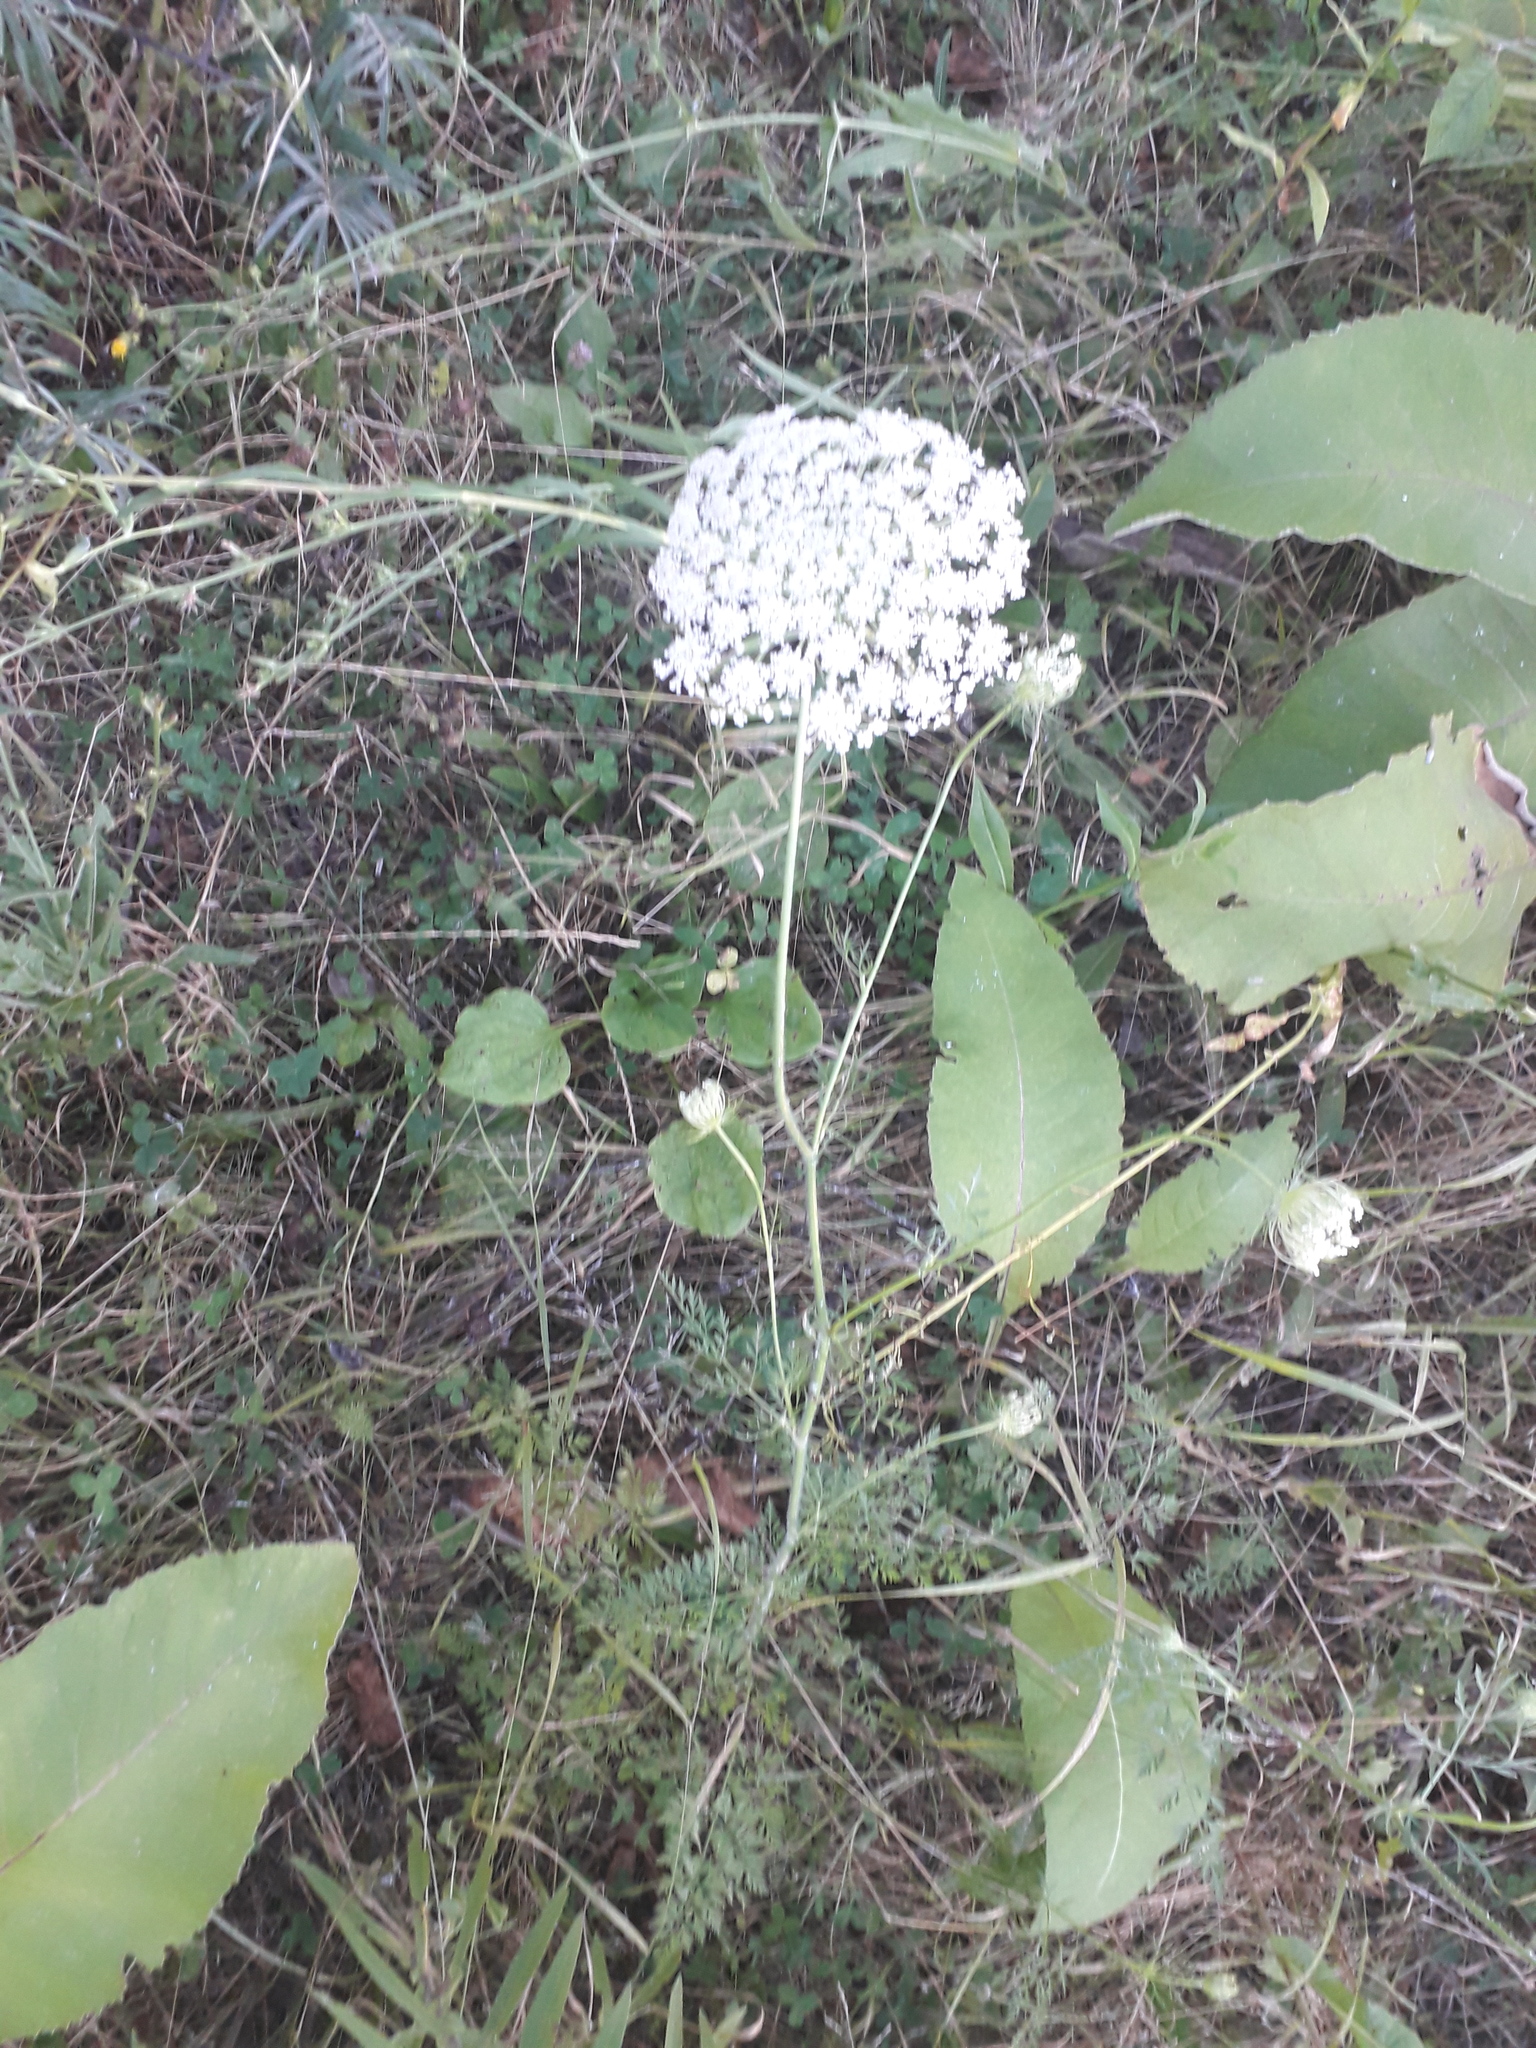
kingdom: Plantae
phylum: Tracheophyta
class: Magnoliopsida
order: Apiales
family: Apiaceae
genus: Daucus
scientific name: Daucus carota
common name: Wild carrot
